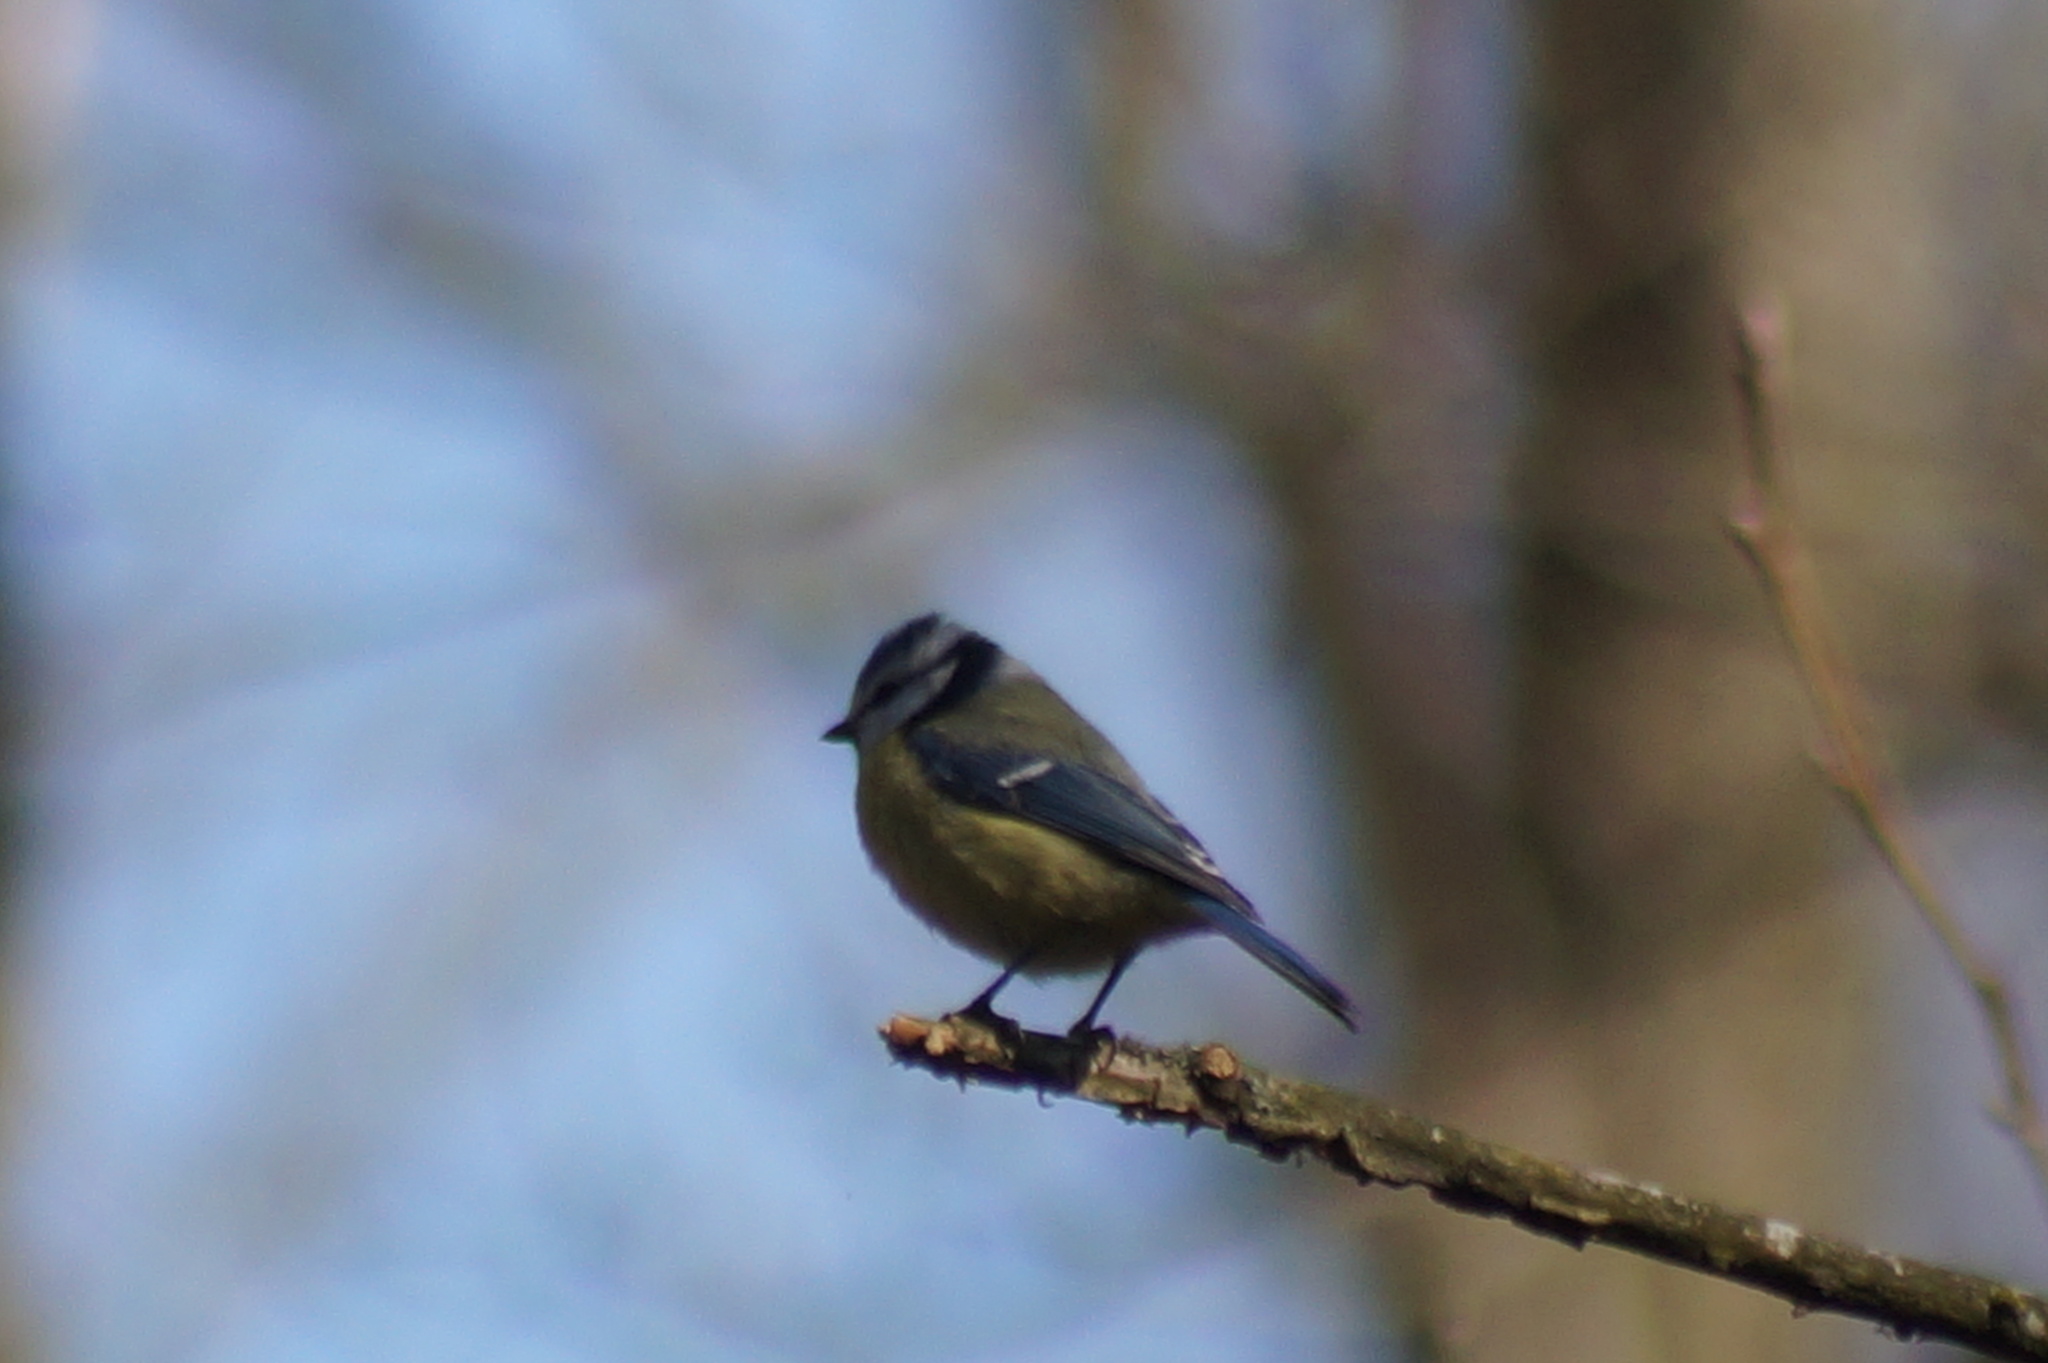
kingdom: Animalia
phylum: Chordata
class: Aves
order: Passeriformes
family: Paridae
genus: Cyanistes
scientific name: Cyanistes caeruleus
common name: Eurasian blue tit
